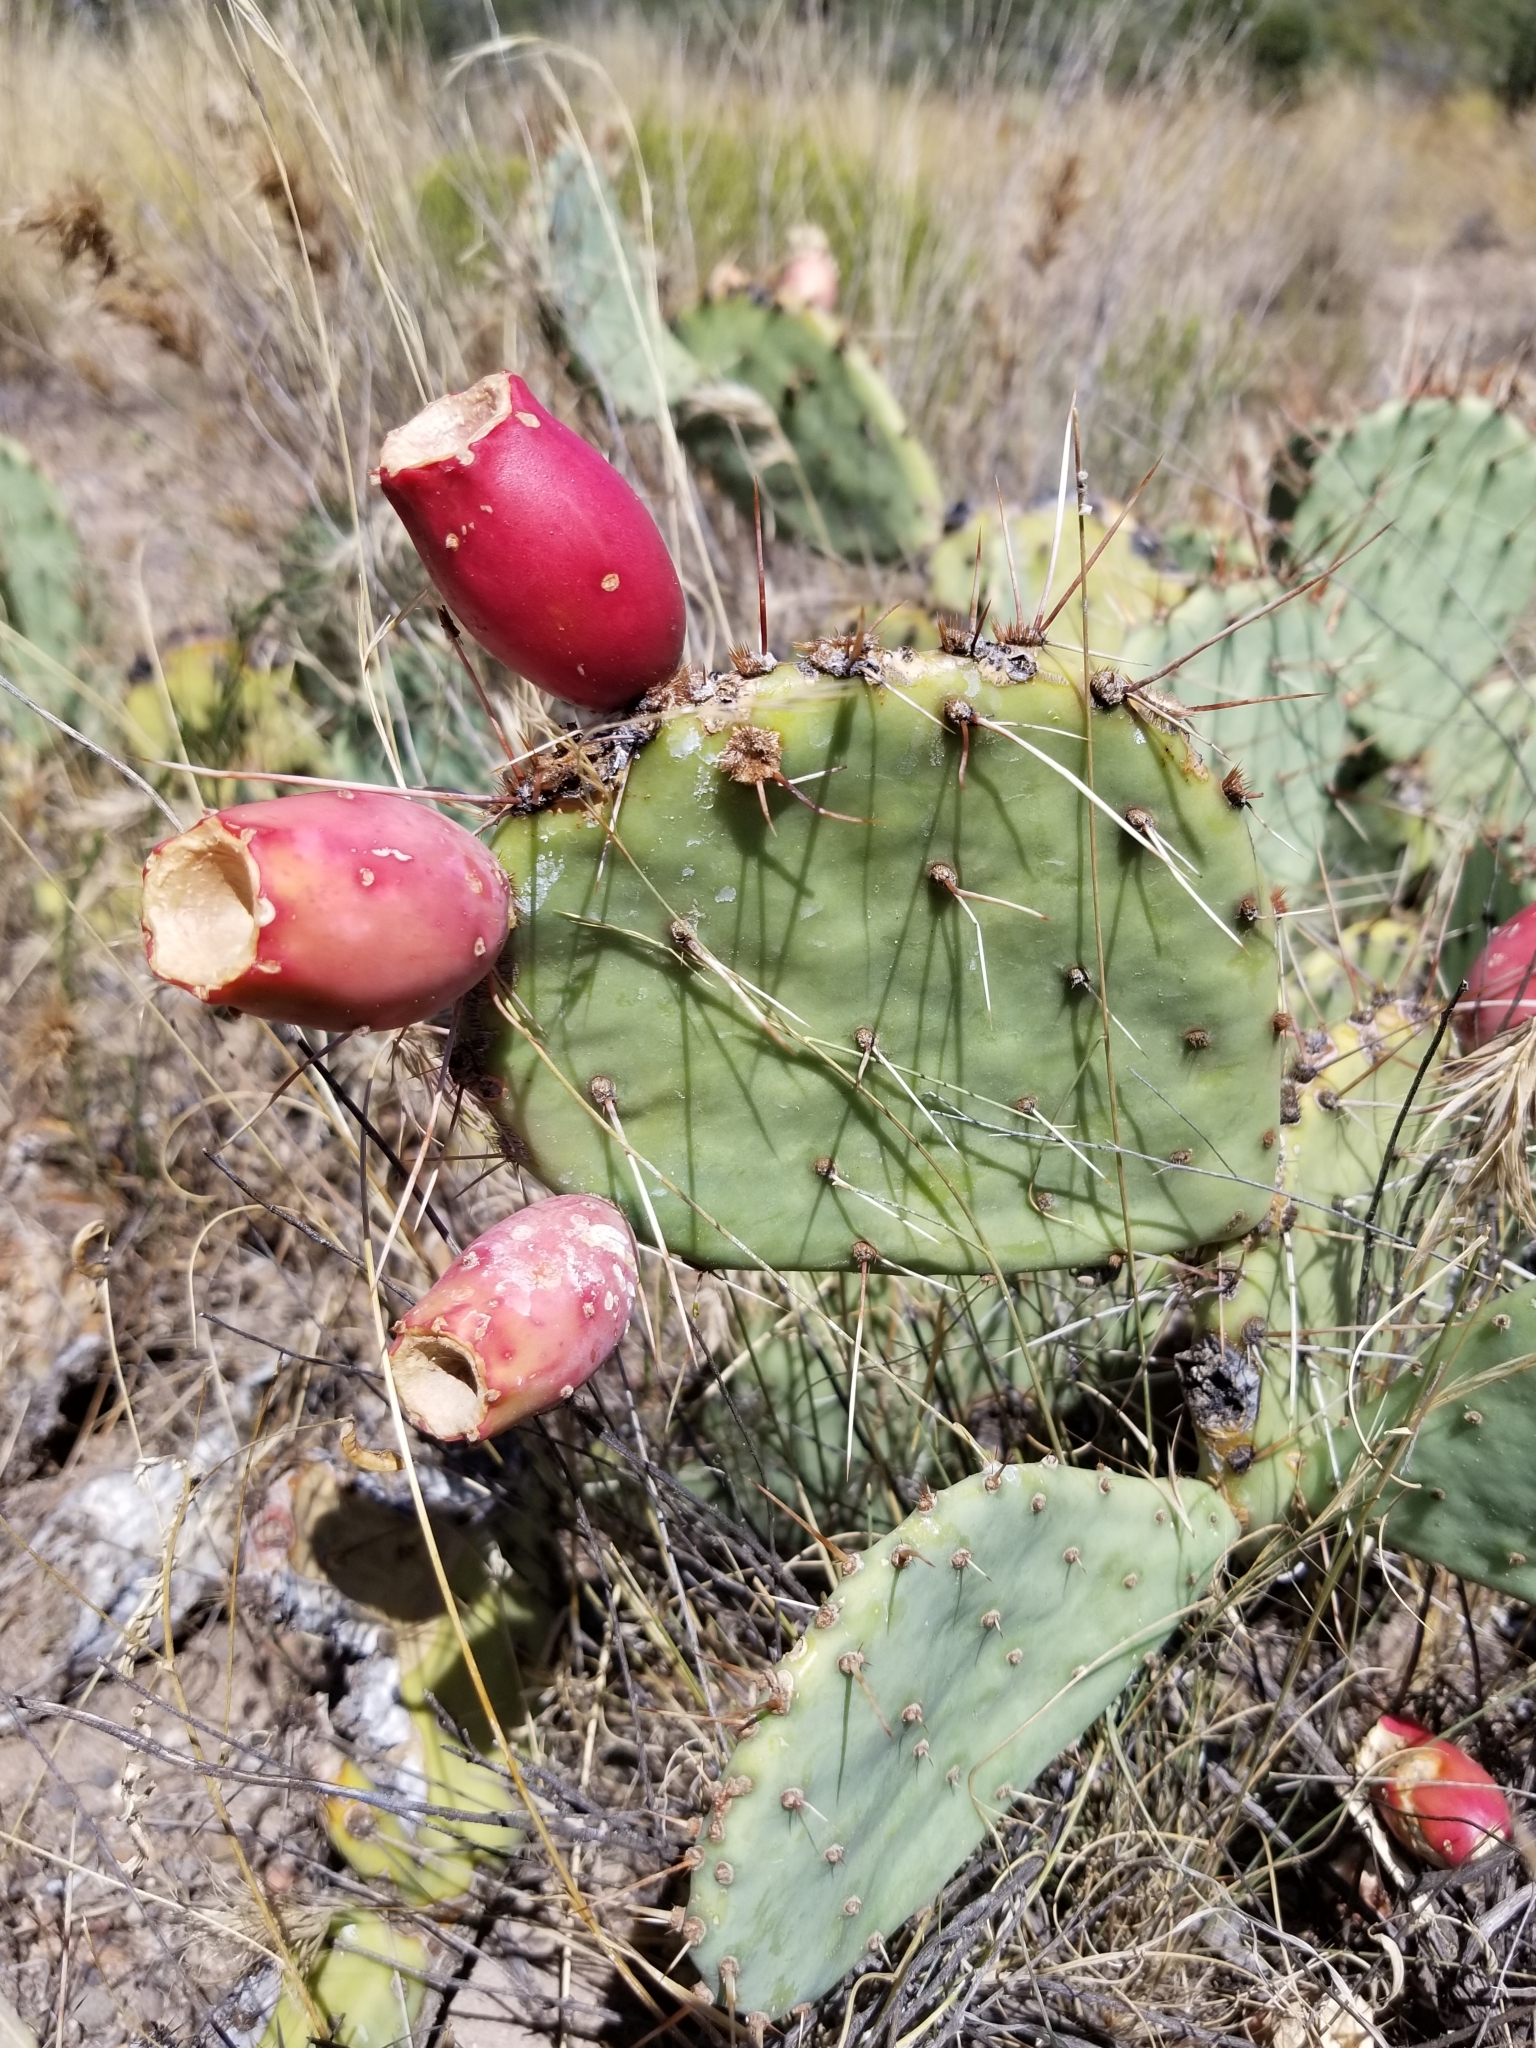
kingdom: Plantae
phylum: Tracheophyta
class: Magnoliopsida
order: Caryophyllales
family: Cactaceae
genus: Opuntia
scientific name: Opuntia phaeacantha
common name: New mexico prickly-pear
